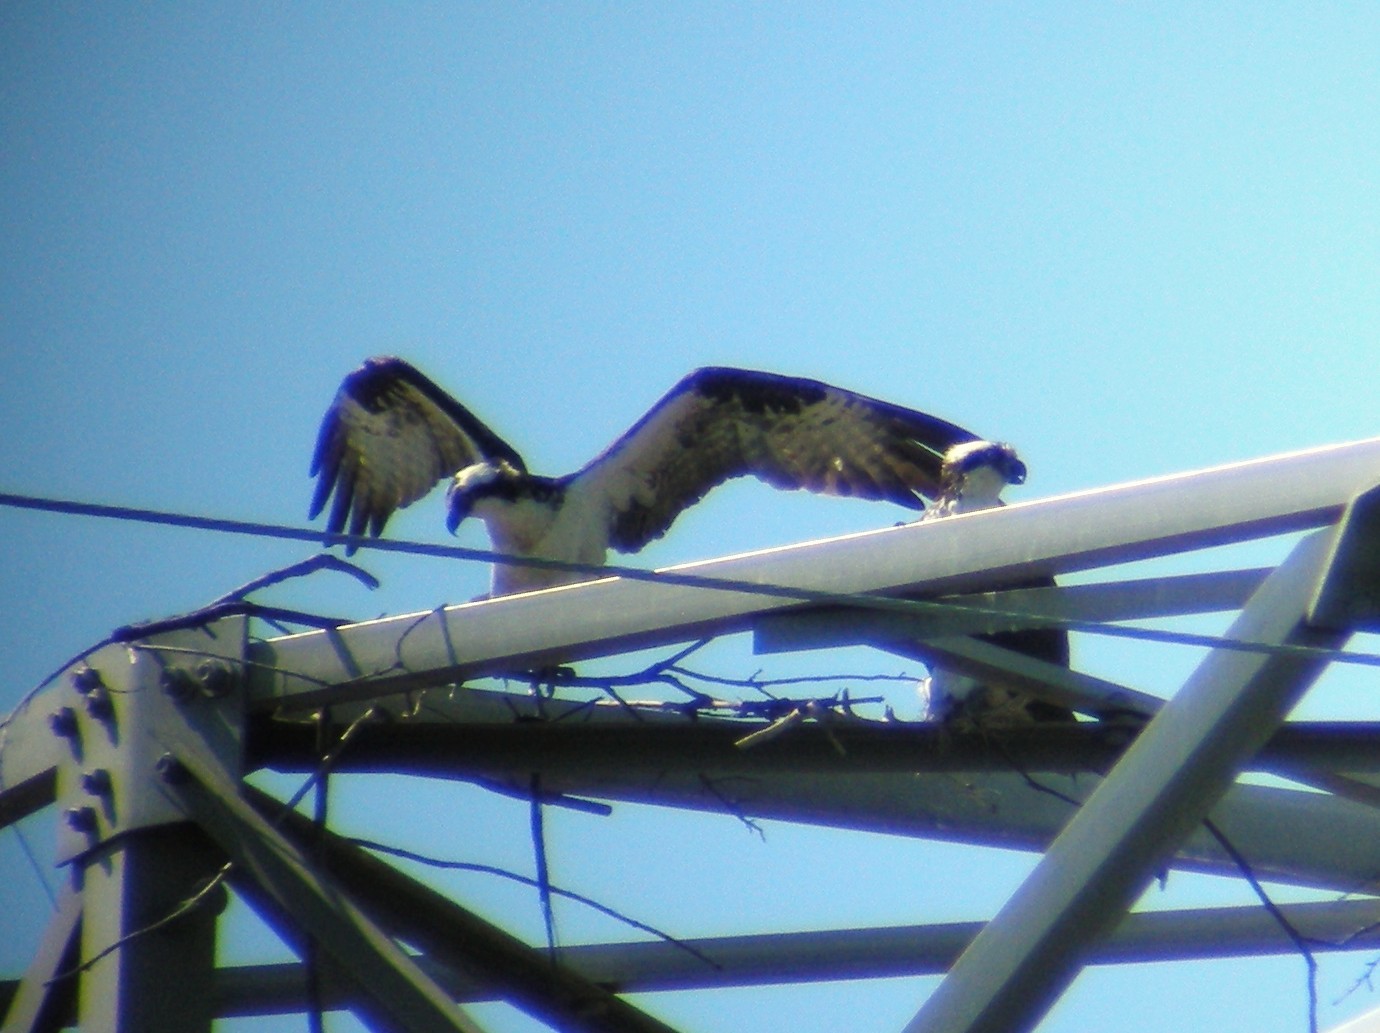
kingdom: Animalia
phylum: Chordata
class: Aves
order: Accipitriformes
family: Pandionidae
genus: Pandion
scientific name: Pandion haliaetus
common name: Osprey
